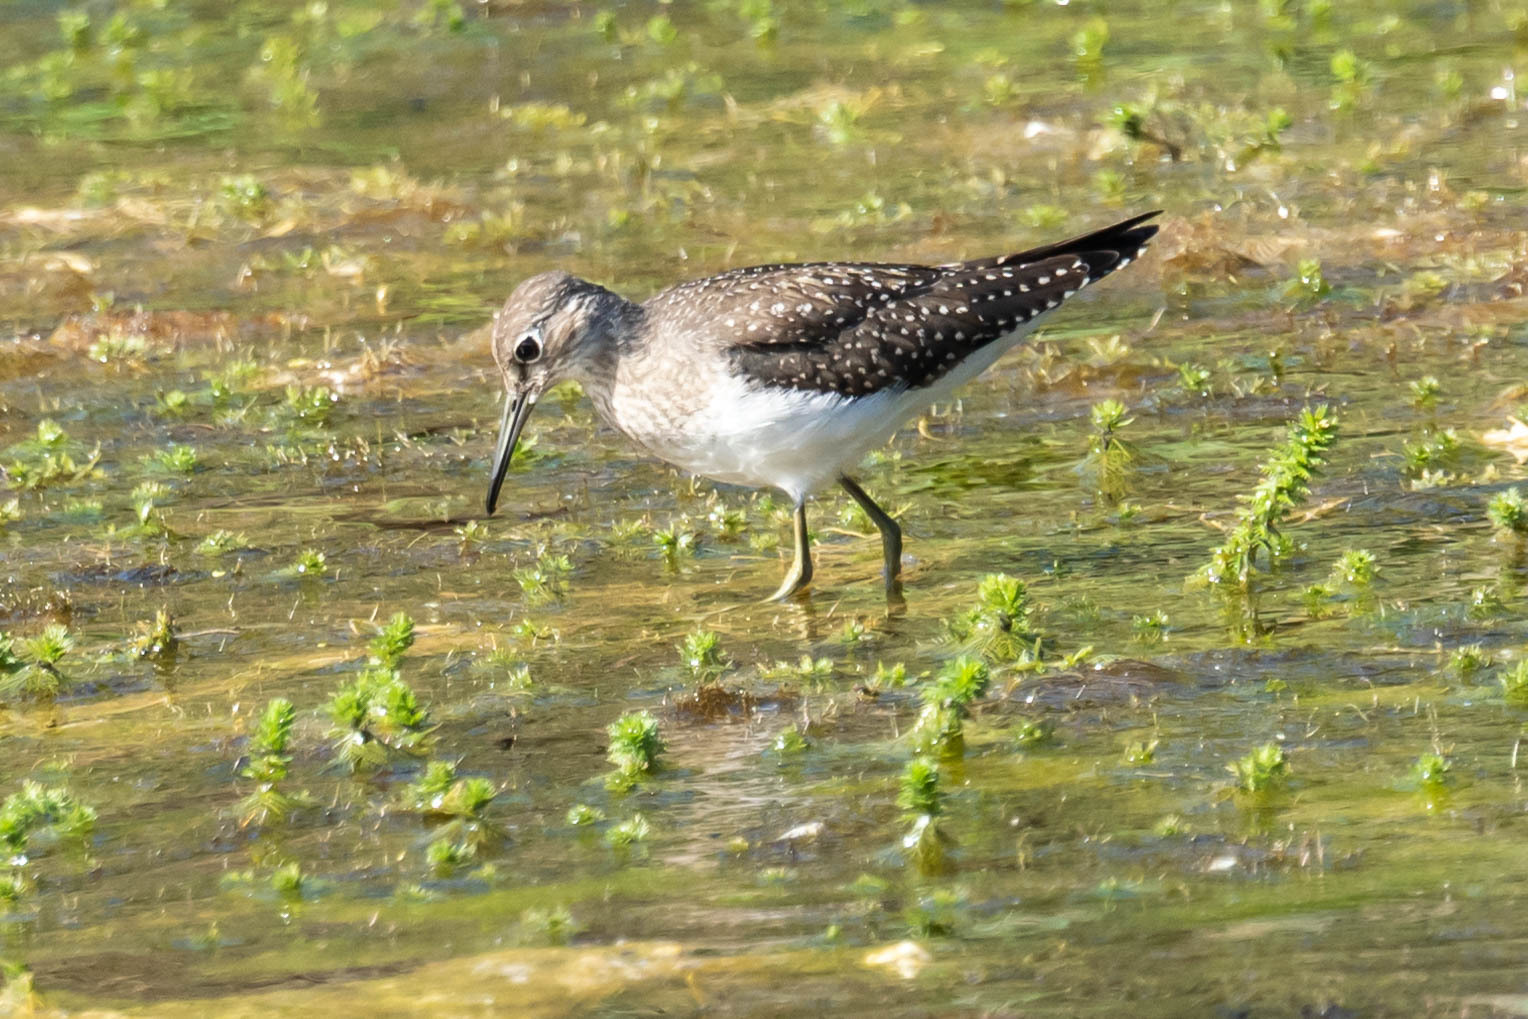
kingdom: Animalia
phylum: Chordata
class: Aves
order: Charadriiformes
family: Scolopacidae
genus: Tringa
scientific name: Tringa solitaria
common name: Solitary sandpiper
